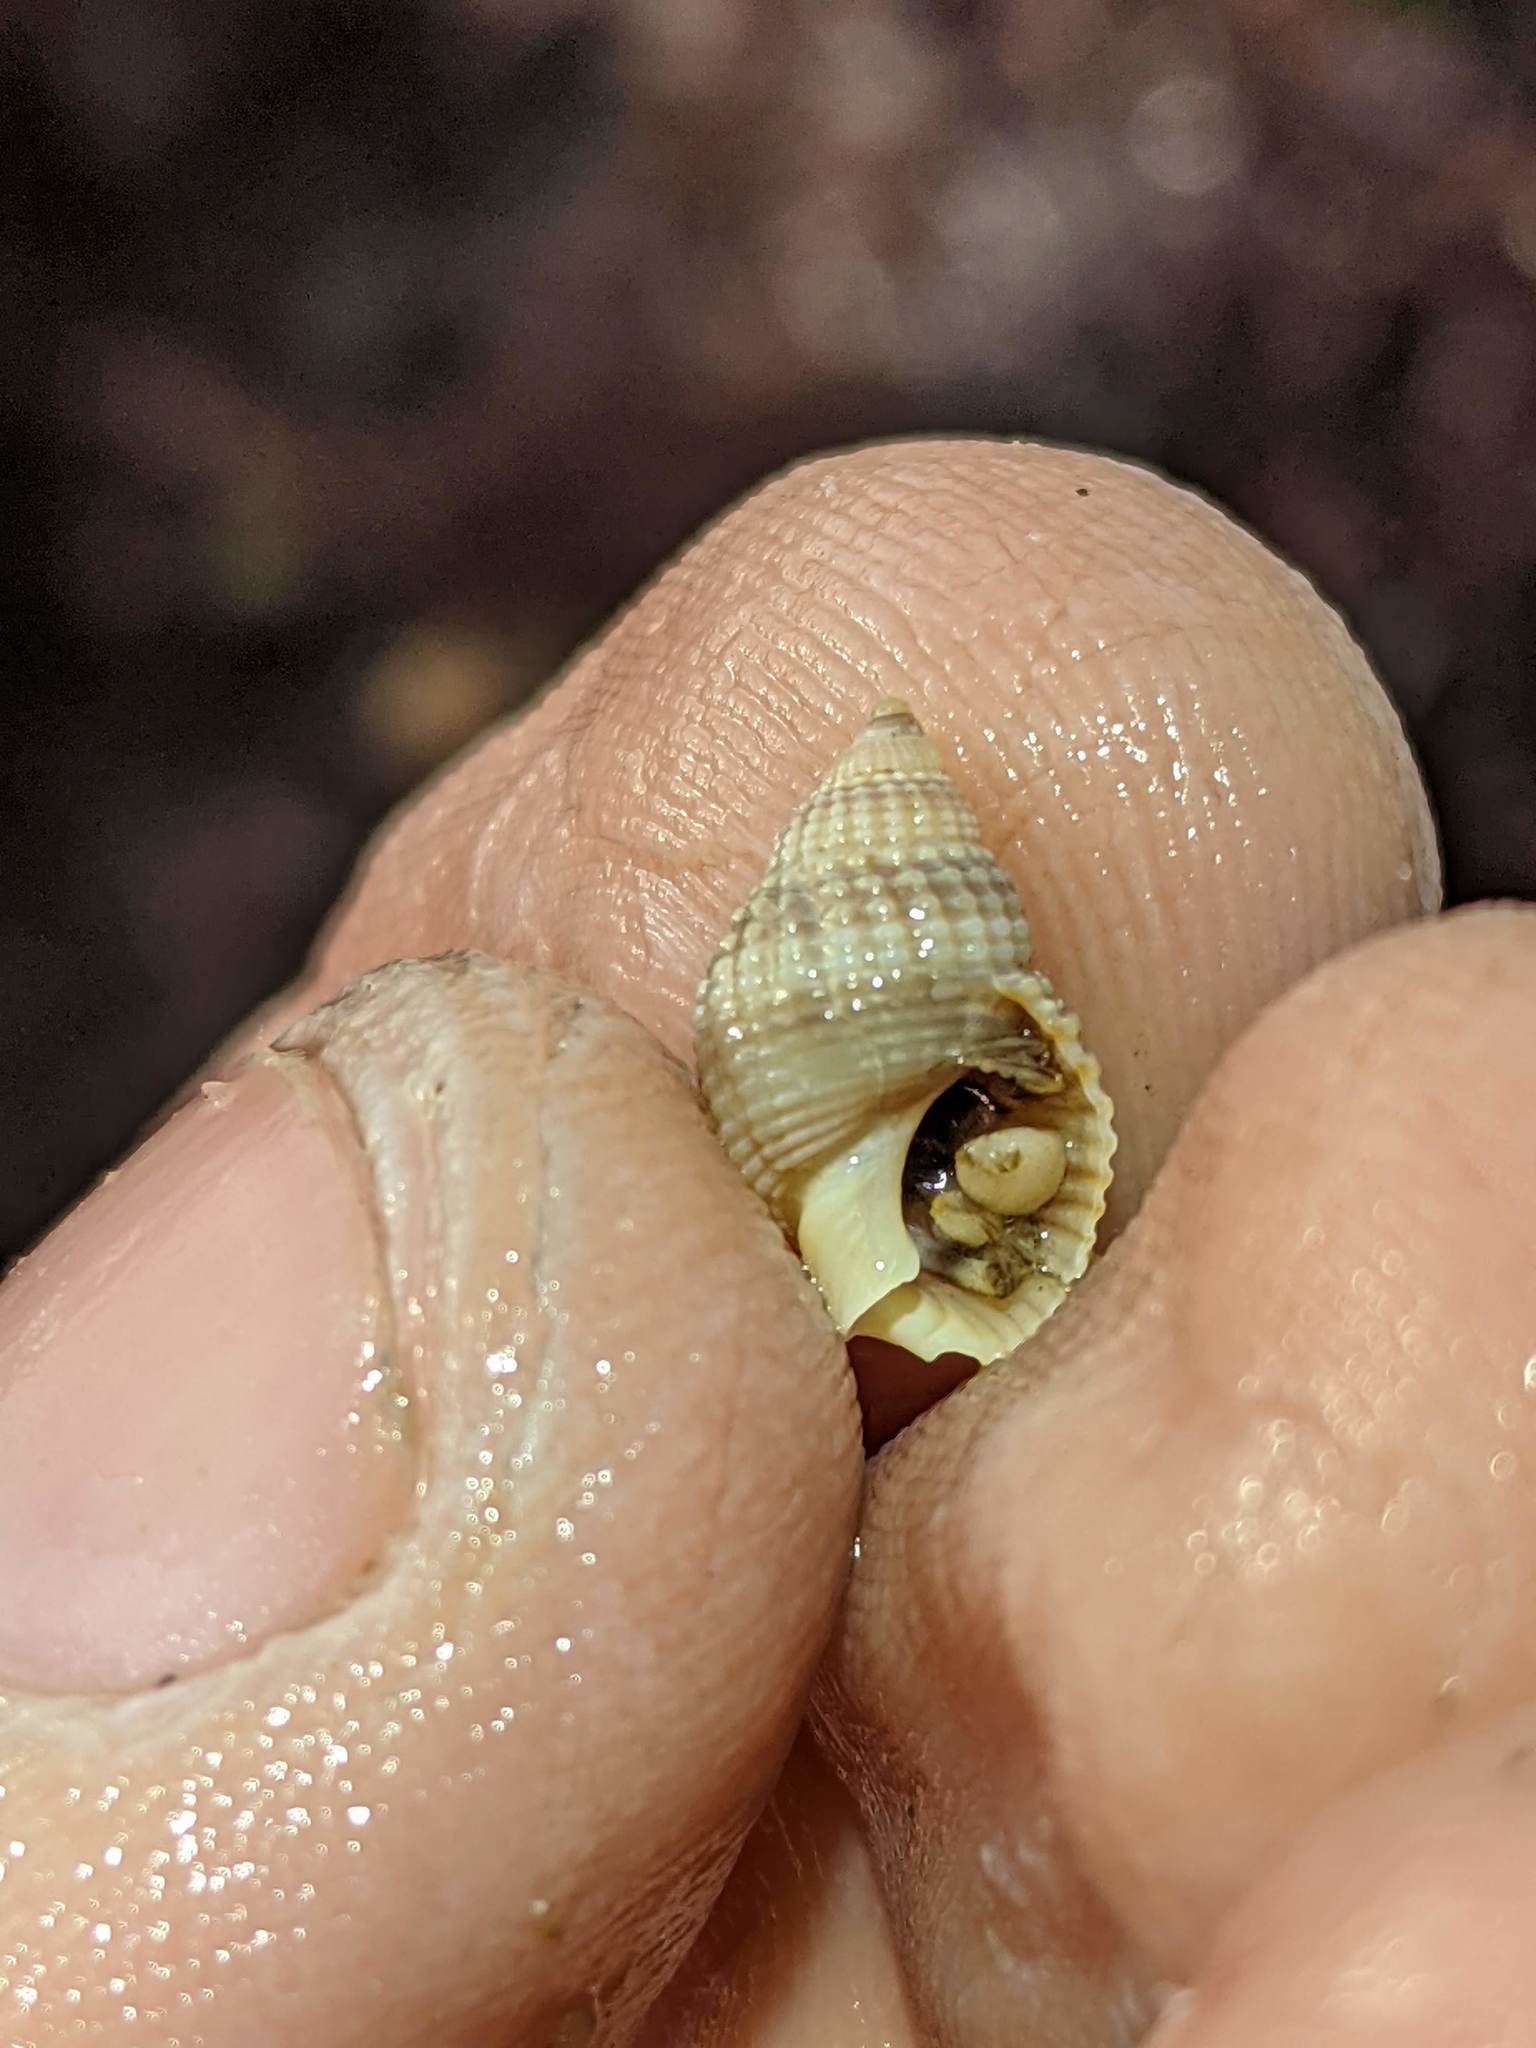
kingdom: Animalia
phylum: Mollusca
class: Gastropoda
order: Neogastropoda
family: Nassariidae
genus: Caesia
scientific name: Caesia fossata
